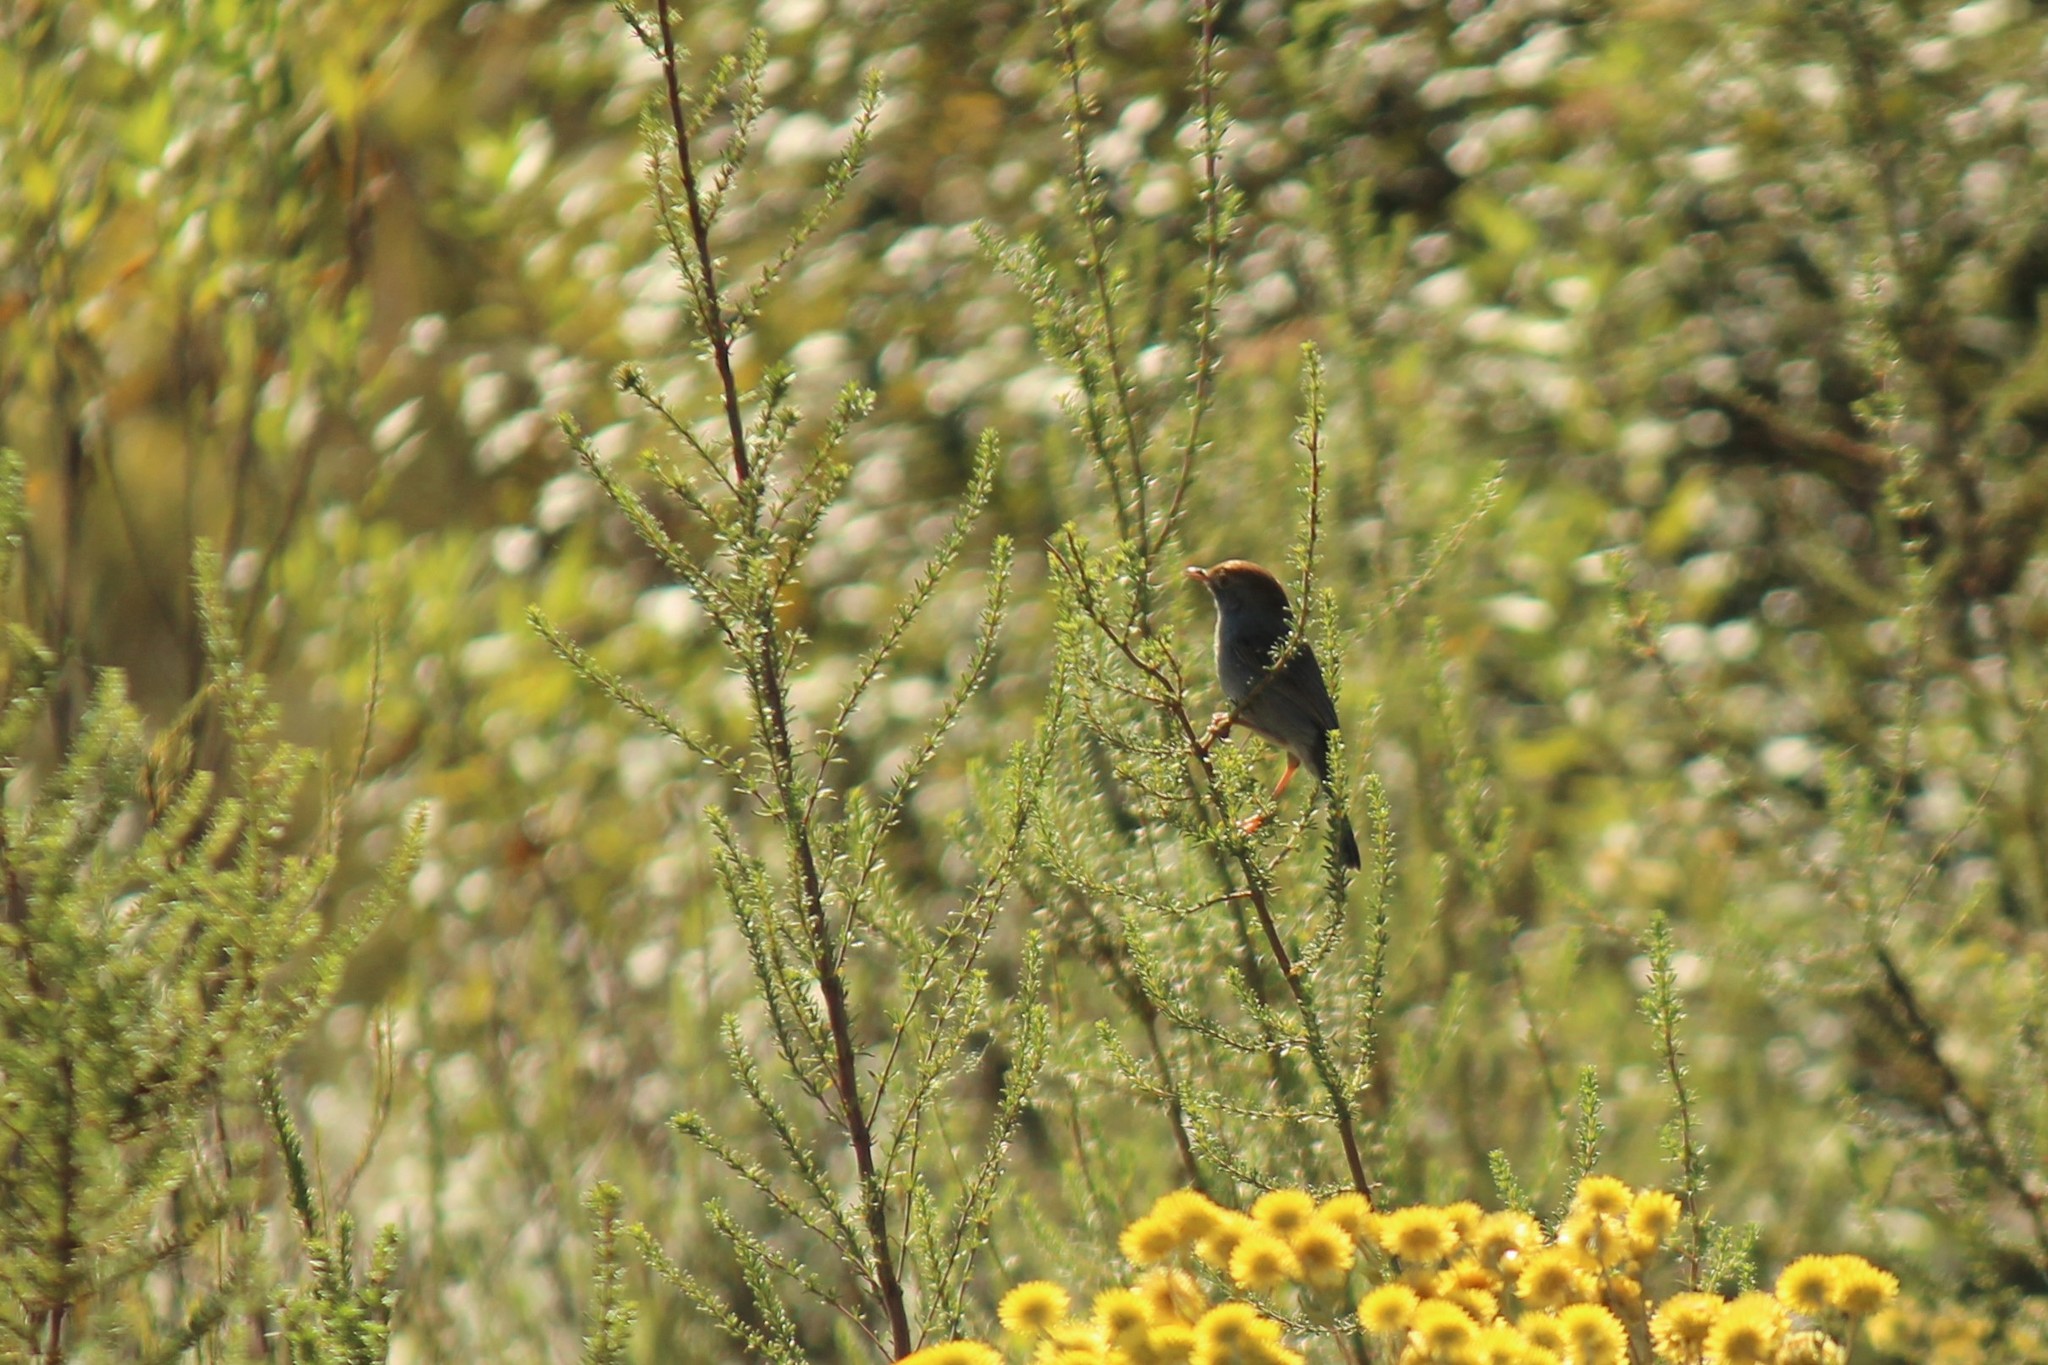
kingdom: Animalia
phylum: Chordata
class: Aves
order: Passeriformes
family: Cisticolidae
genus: Cisticola
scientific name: Cisticola aberrans
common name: Lazy cisticola
